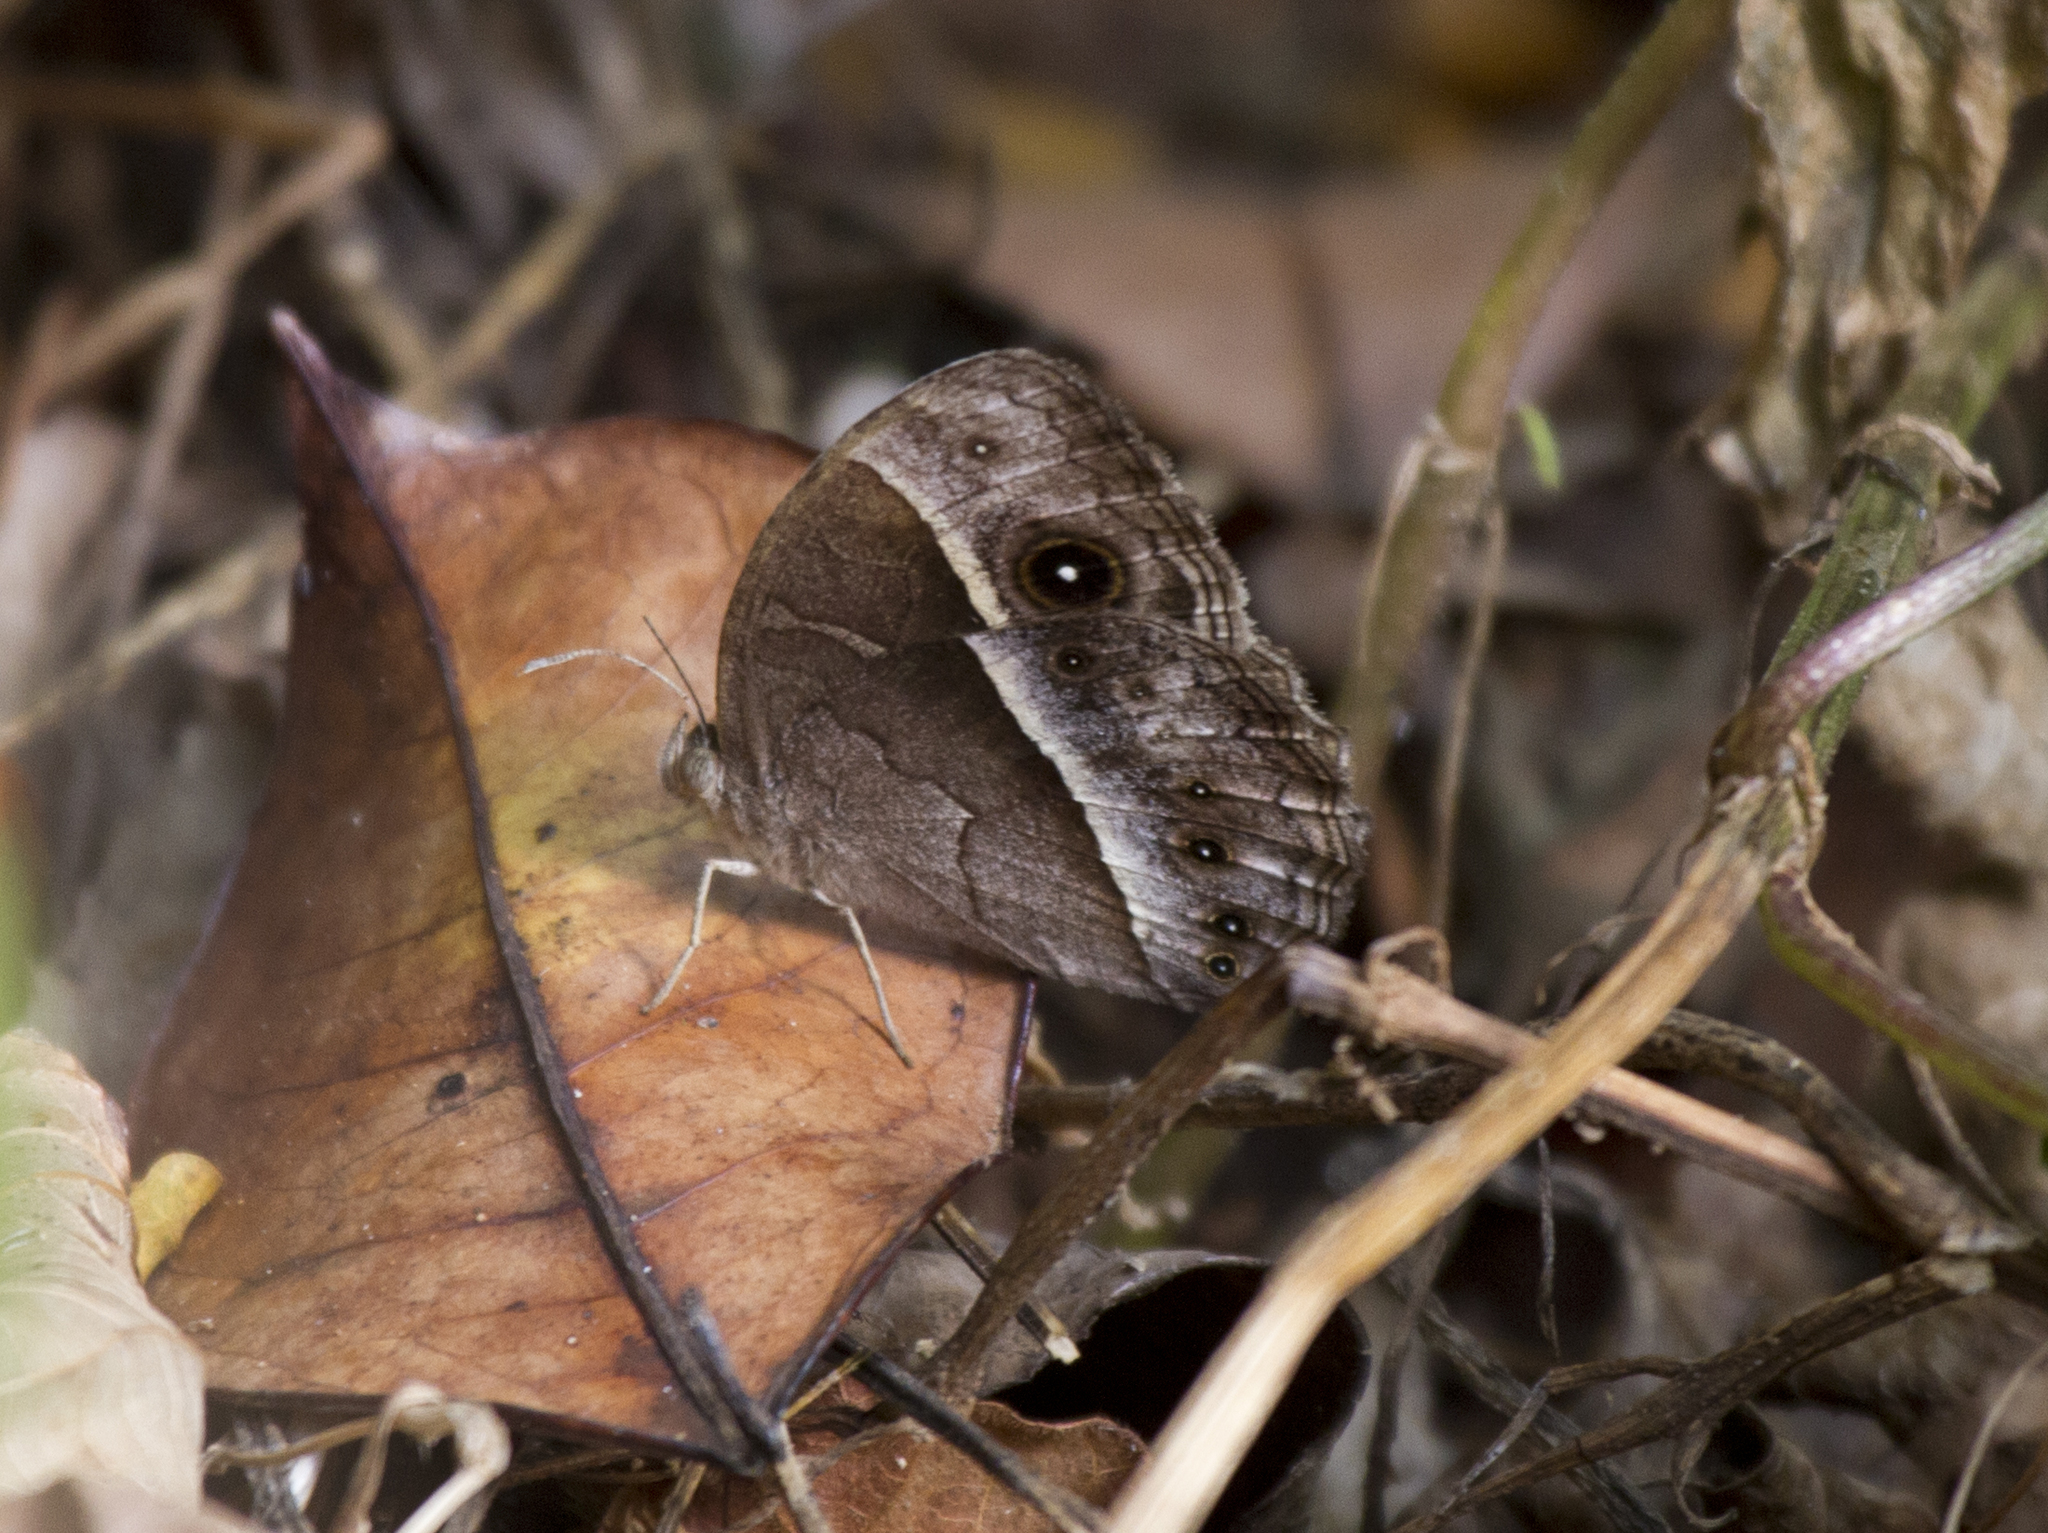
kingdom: Animalia
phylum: Arthropoda
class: Insecta
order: Lepidoptera
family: Nymphalidae
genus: Mycalesis
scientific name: Mycalesis rhacotis
